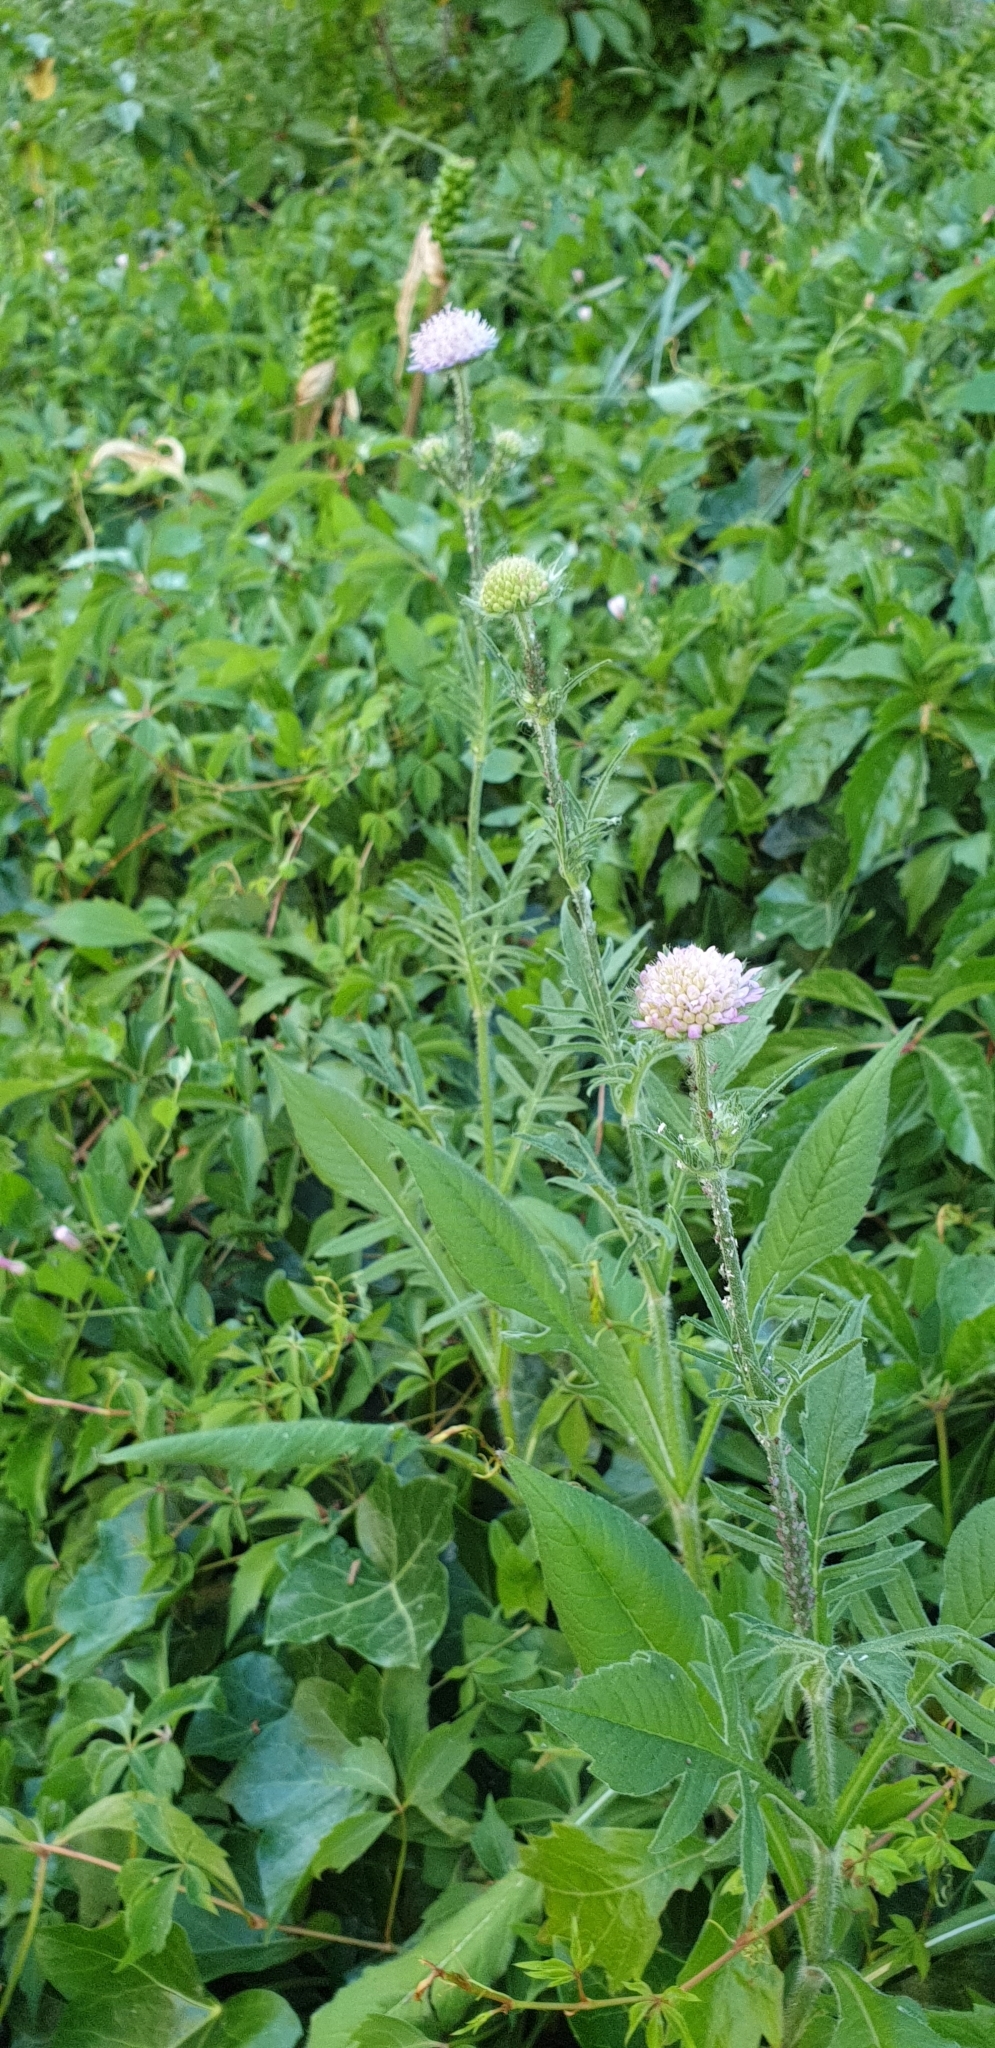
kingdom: Plantae
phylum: Tracheophyta
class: Magnoliopsida
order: Dipsacales
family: Caprifoliaceae
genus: Knautia
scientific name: Knautia arvensis
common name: Field scabiosa
